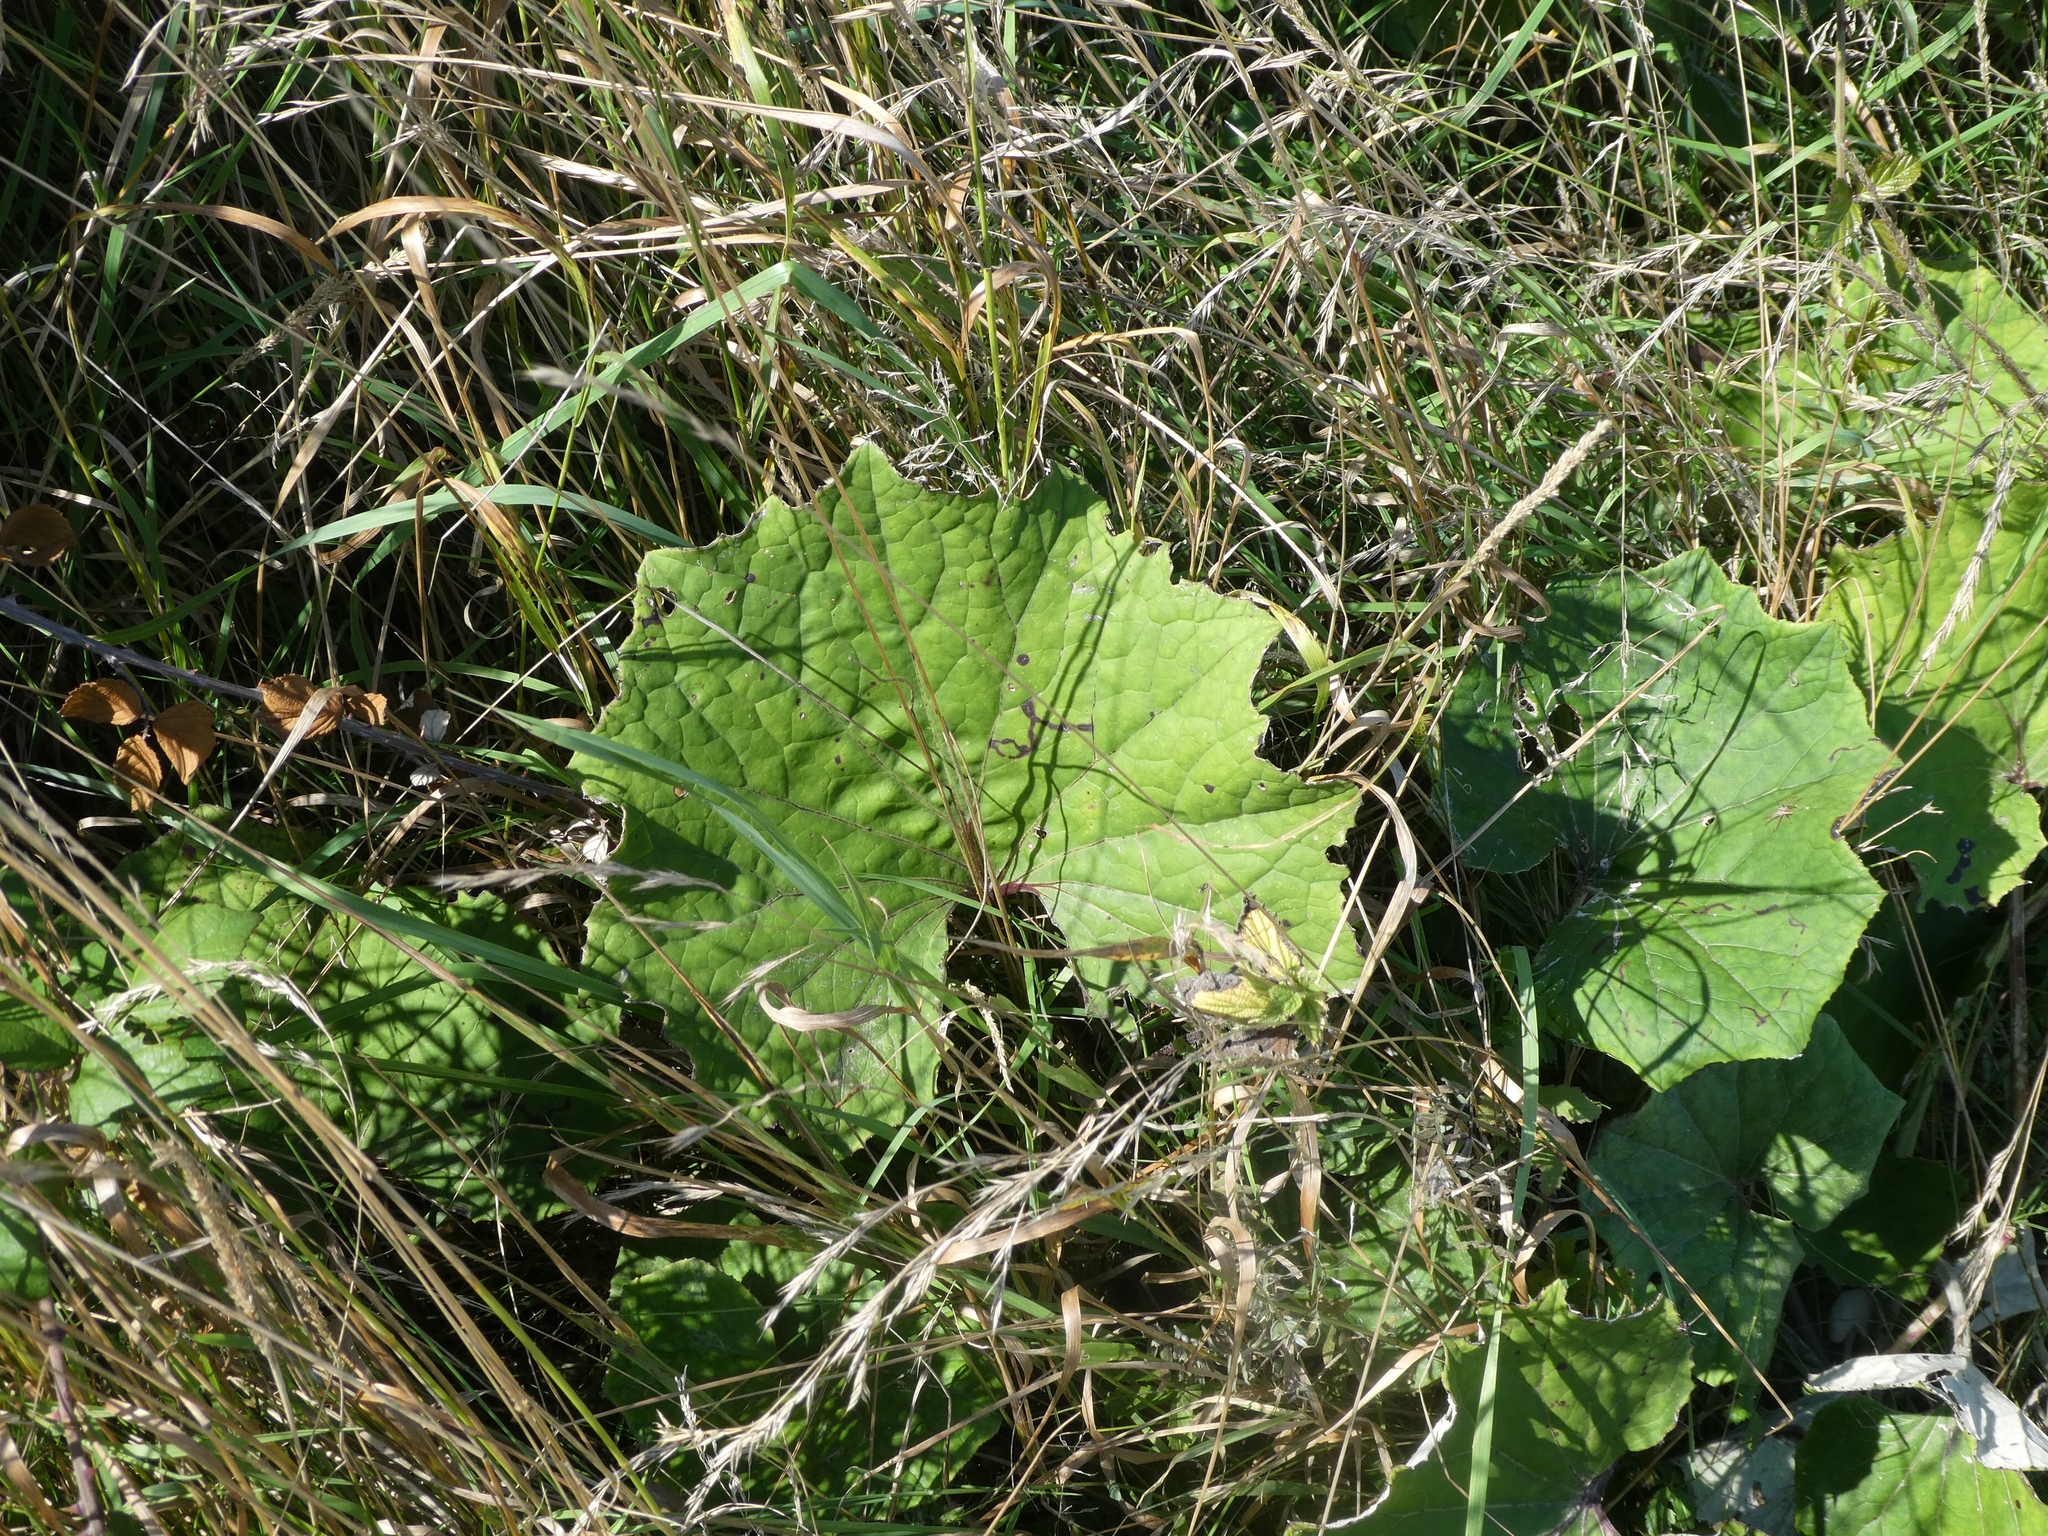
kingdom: Plantae
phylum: Tracheophyta
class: Magnoliopsida
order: Asterales
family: Asteraceae
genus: Tussilago
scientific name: Tussilago farfara
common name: Coltsfoot
